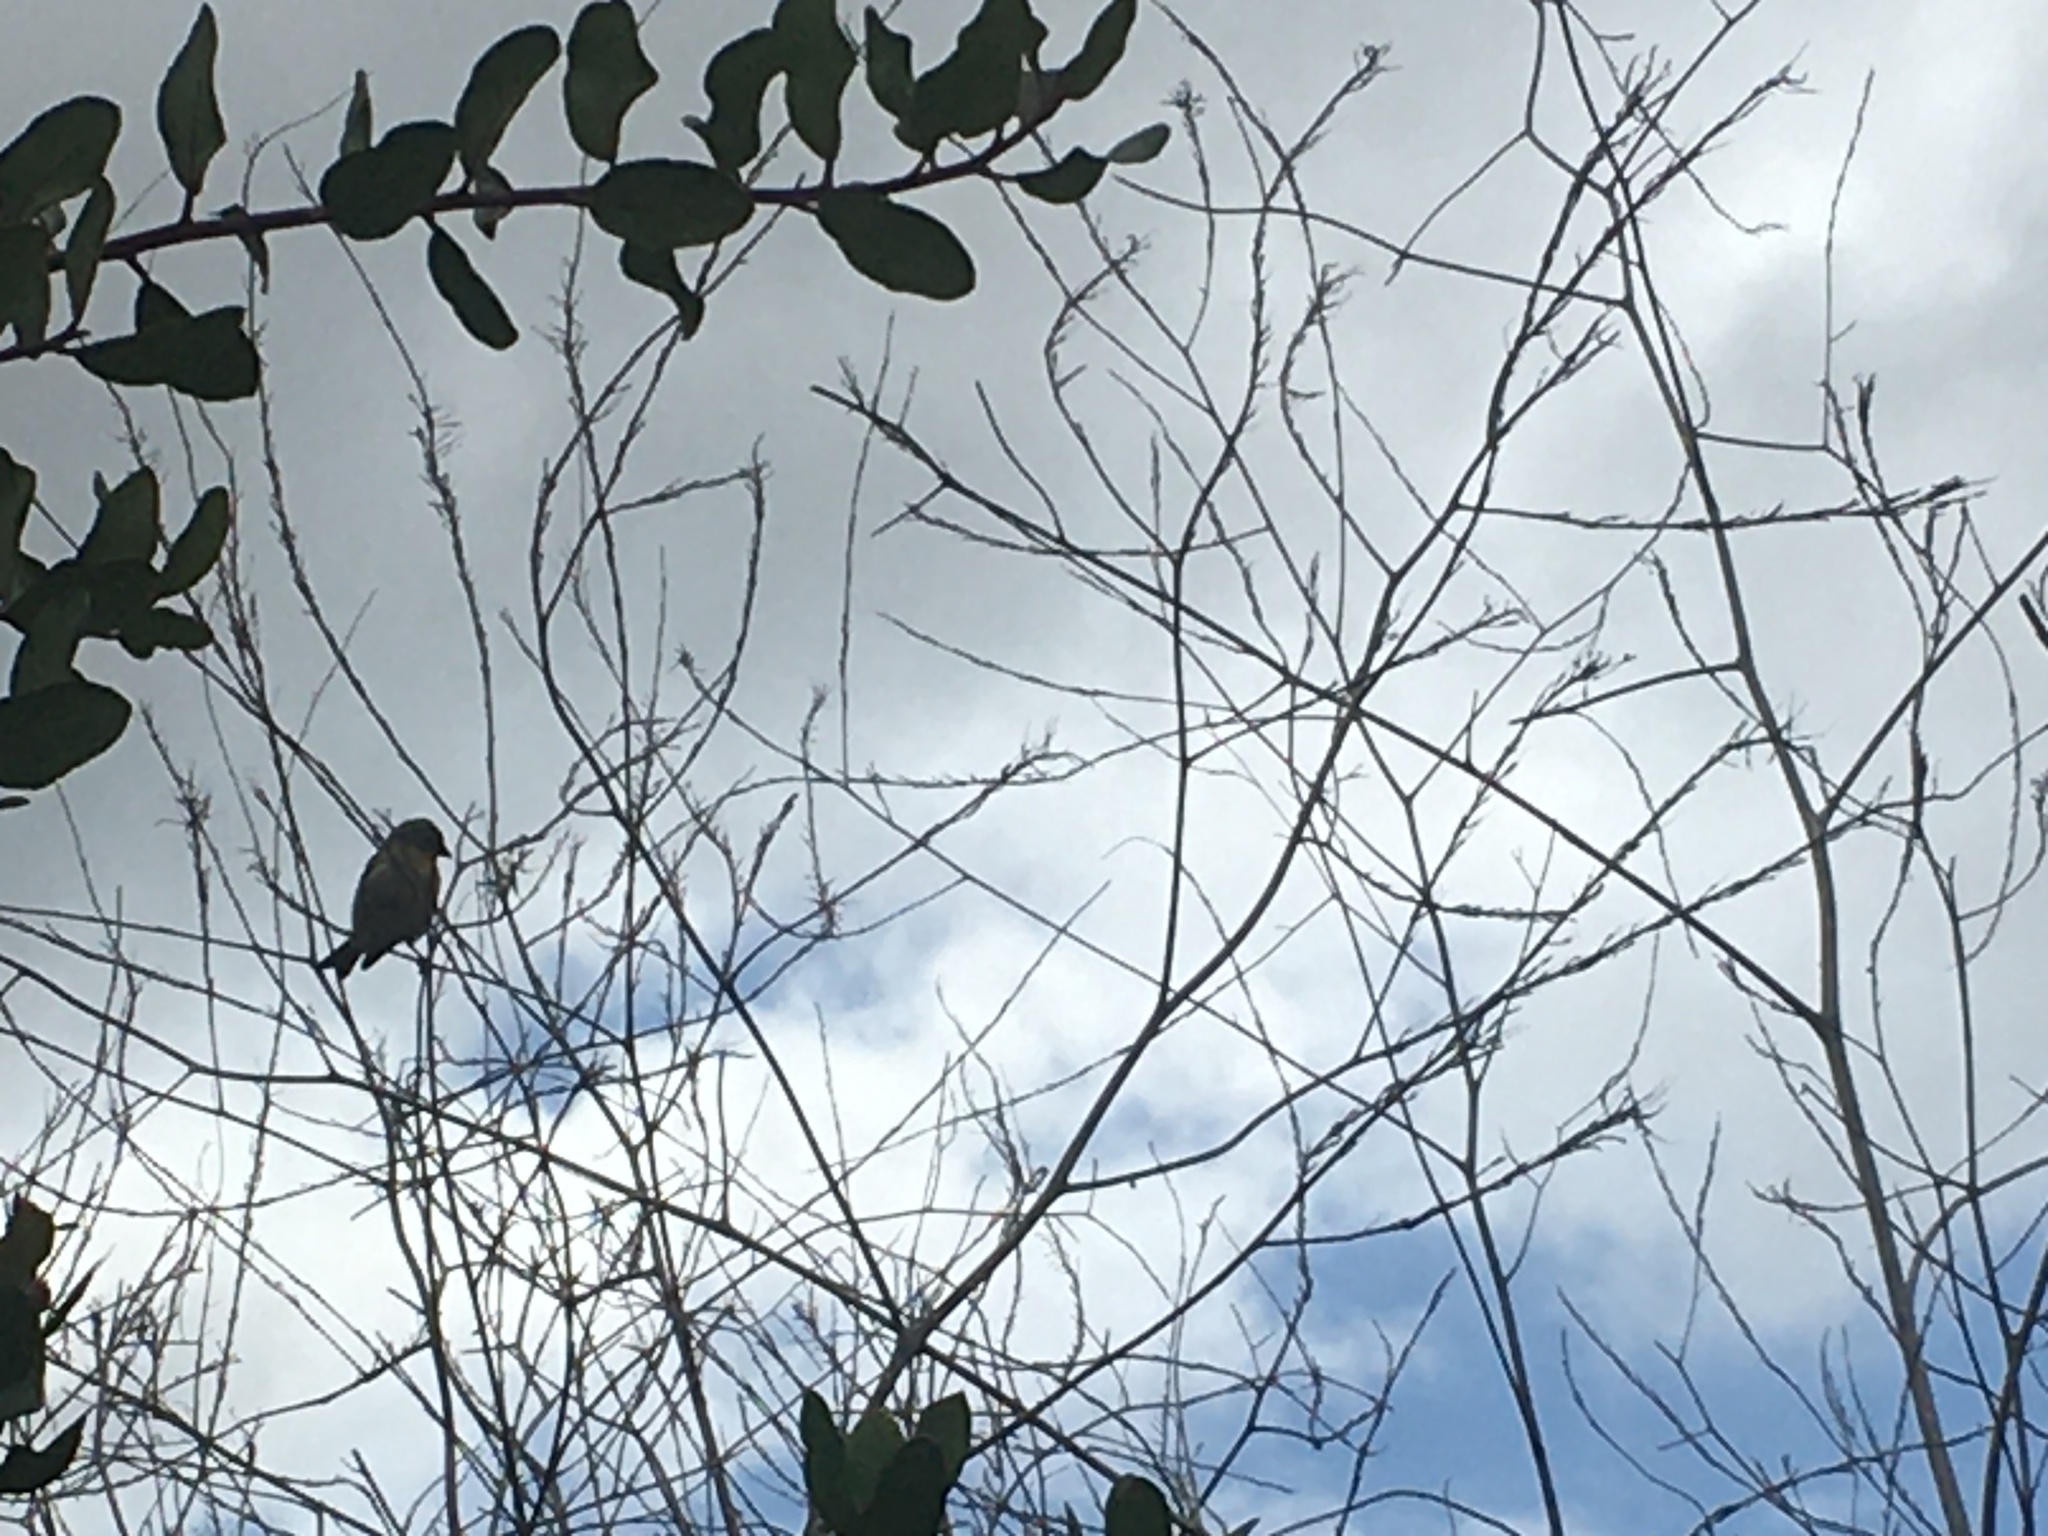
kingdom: Animalia
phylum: Chordata
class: Aves
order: Passeriformes
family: Fringillidae
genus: Spinus
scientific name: Spinus psaltria
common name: Lesser goldfinch
